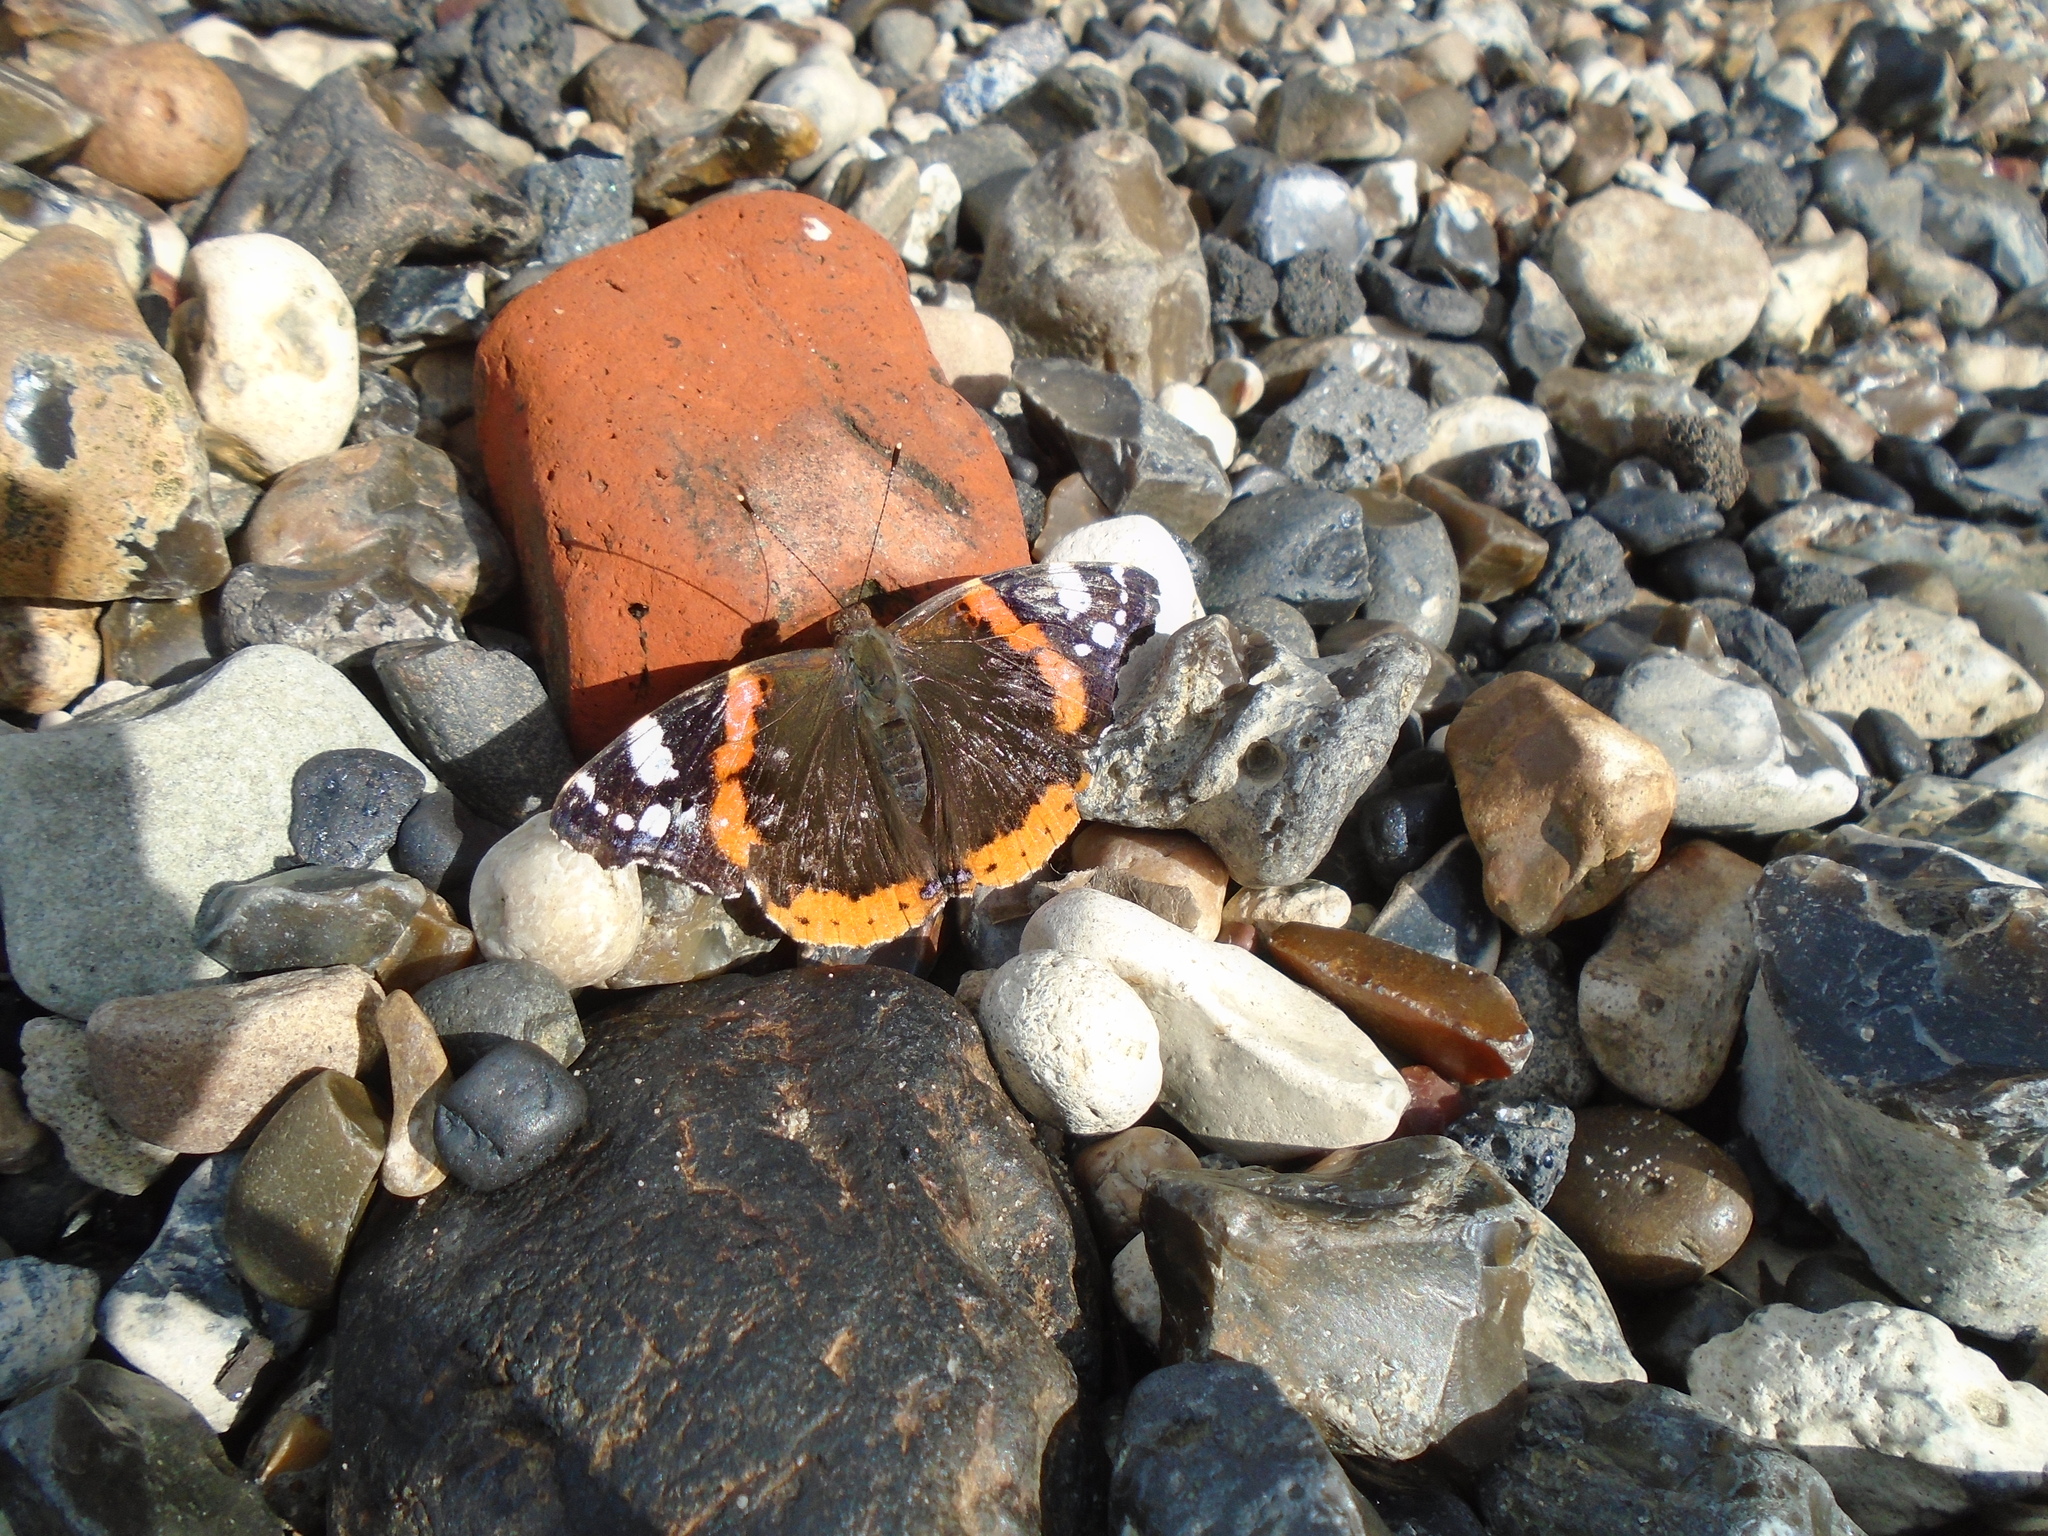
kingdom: Animalia
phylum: Arthropoda
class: Insecta
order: Lepidoptera
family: Nymphalidae
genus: Vanessa
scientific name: Vanessa atalanta
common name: Red admiral
